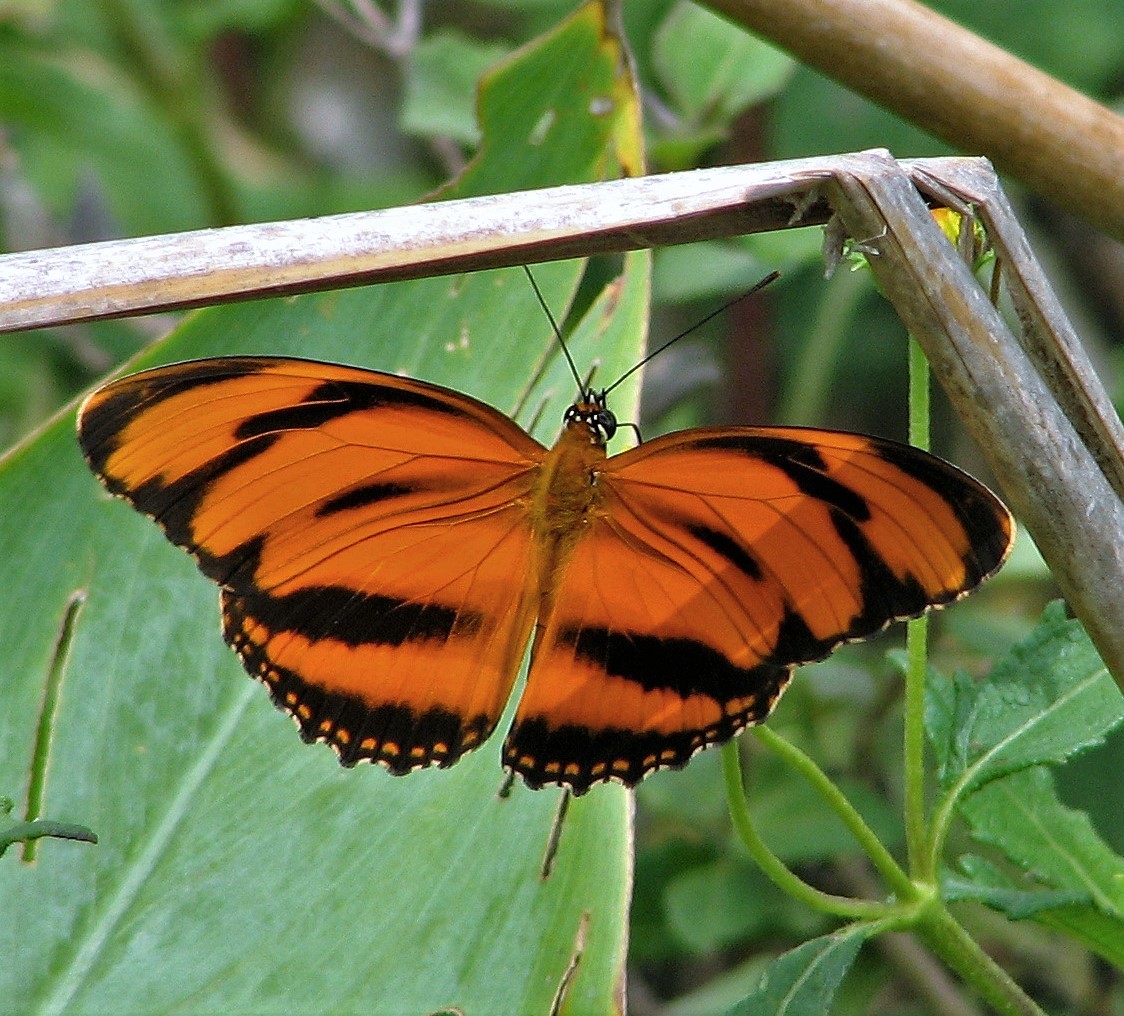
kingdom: Animalia
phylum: Arthropoda
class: Insecta
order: Lepidoptera
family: Nymphalidae
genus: Dryadula
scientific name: Dryadula phaetusa
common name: Banded orange heliconian
